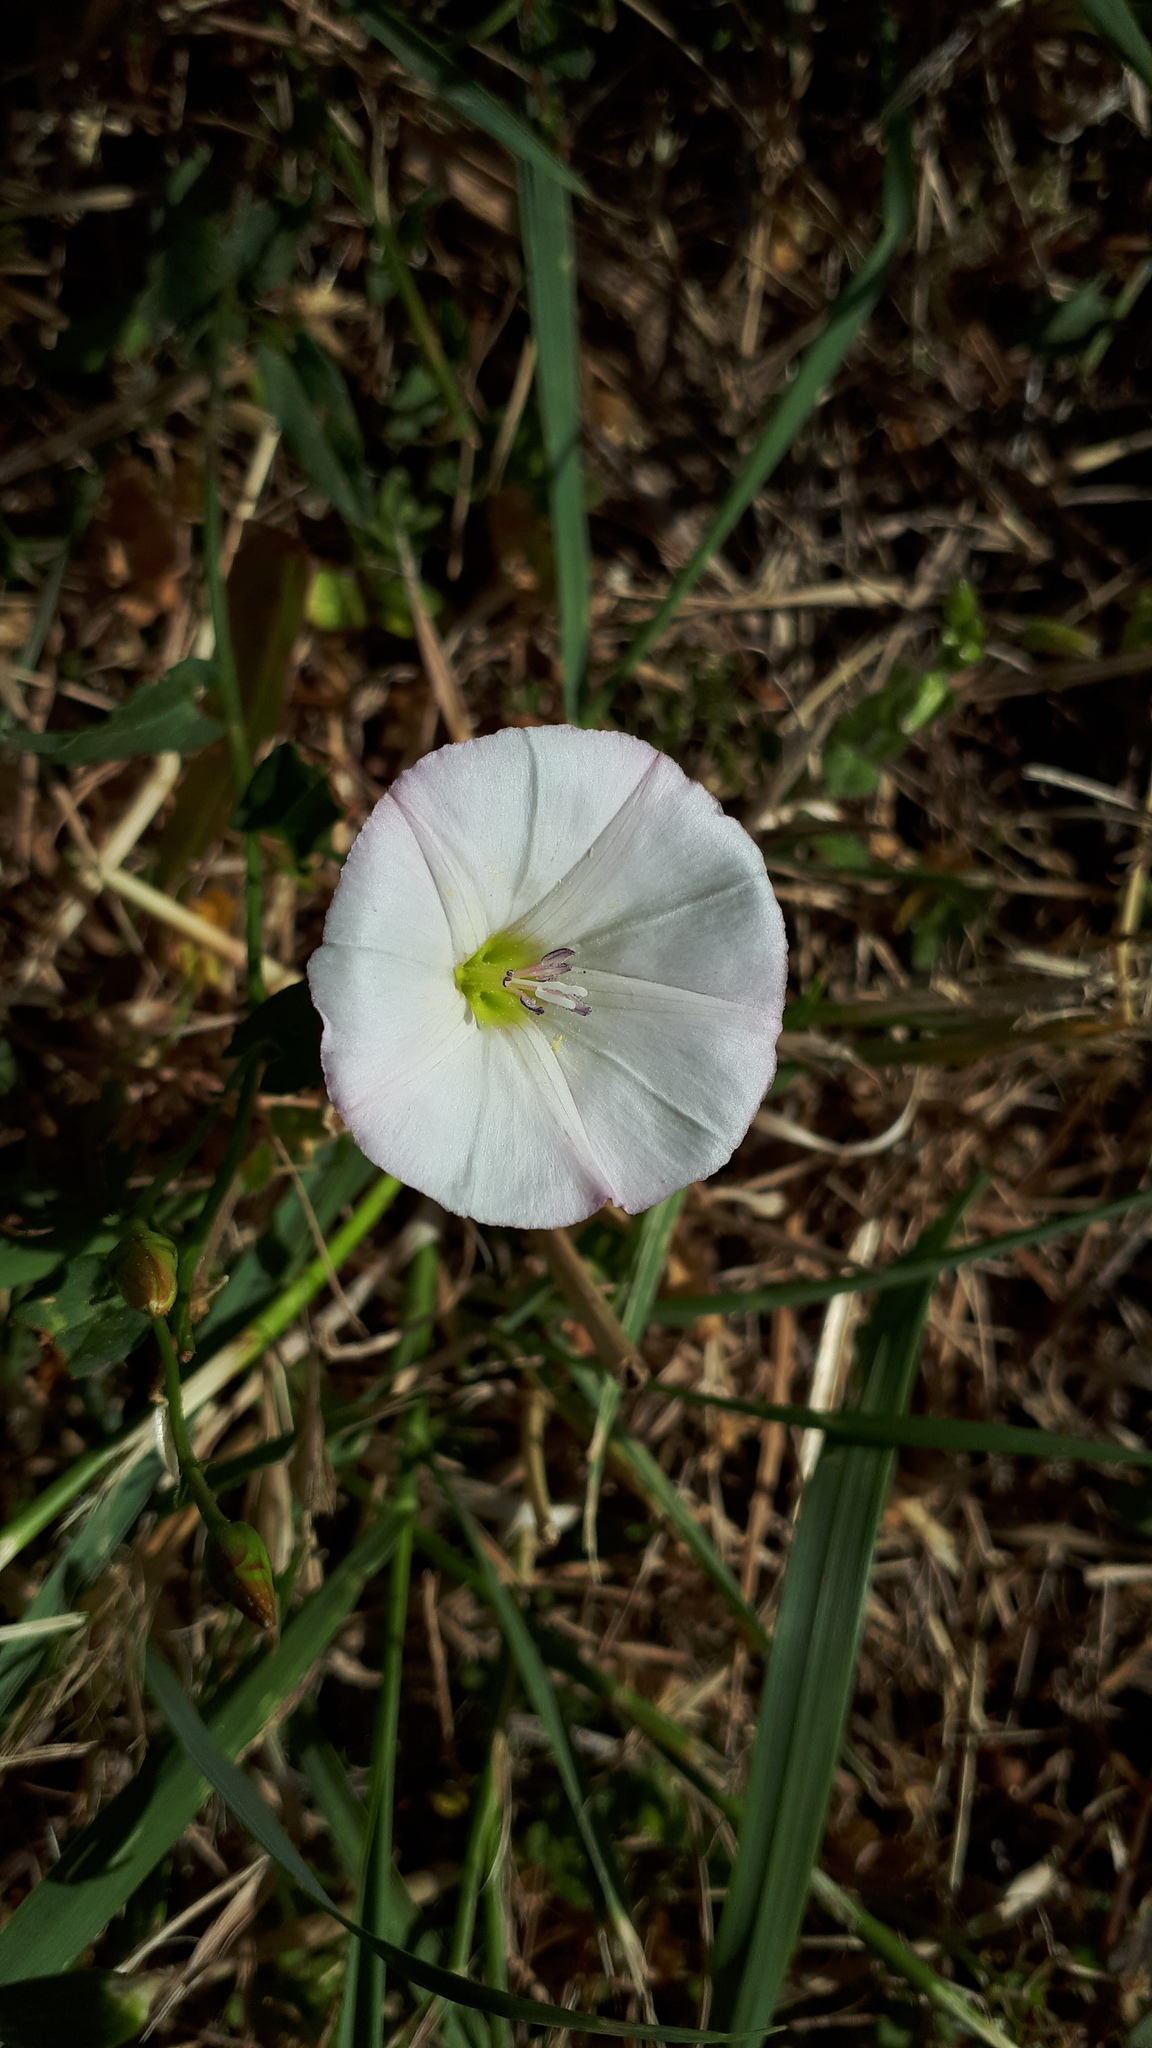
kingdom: Plantae
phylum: Tracheophyta
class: Magnoliopsida
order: Solanales
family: Convolvulaceae
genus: Convolvulus
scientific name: Convolvulus arvensis
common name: Field bindweed
